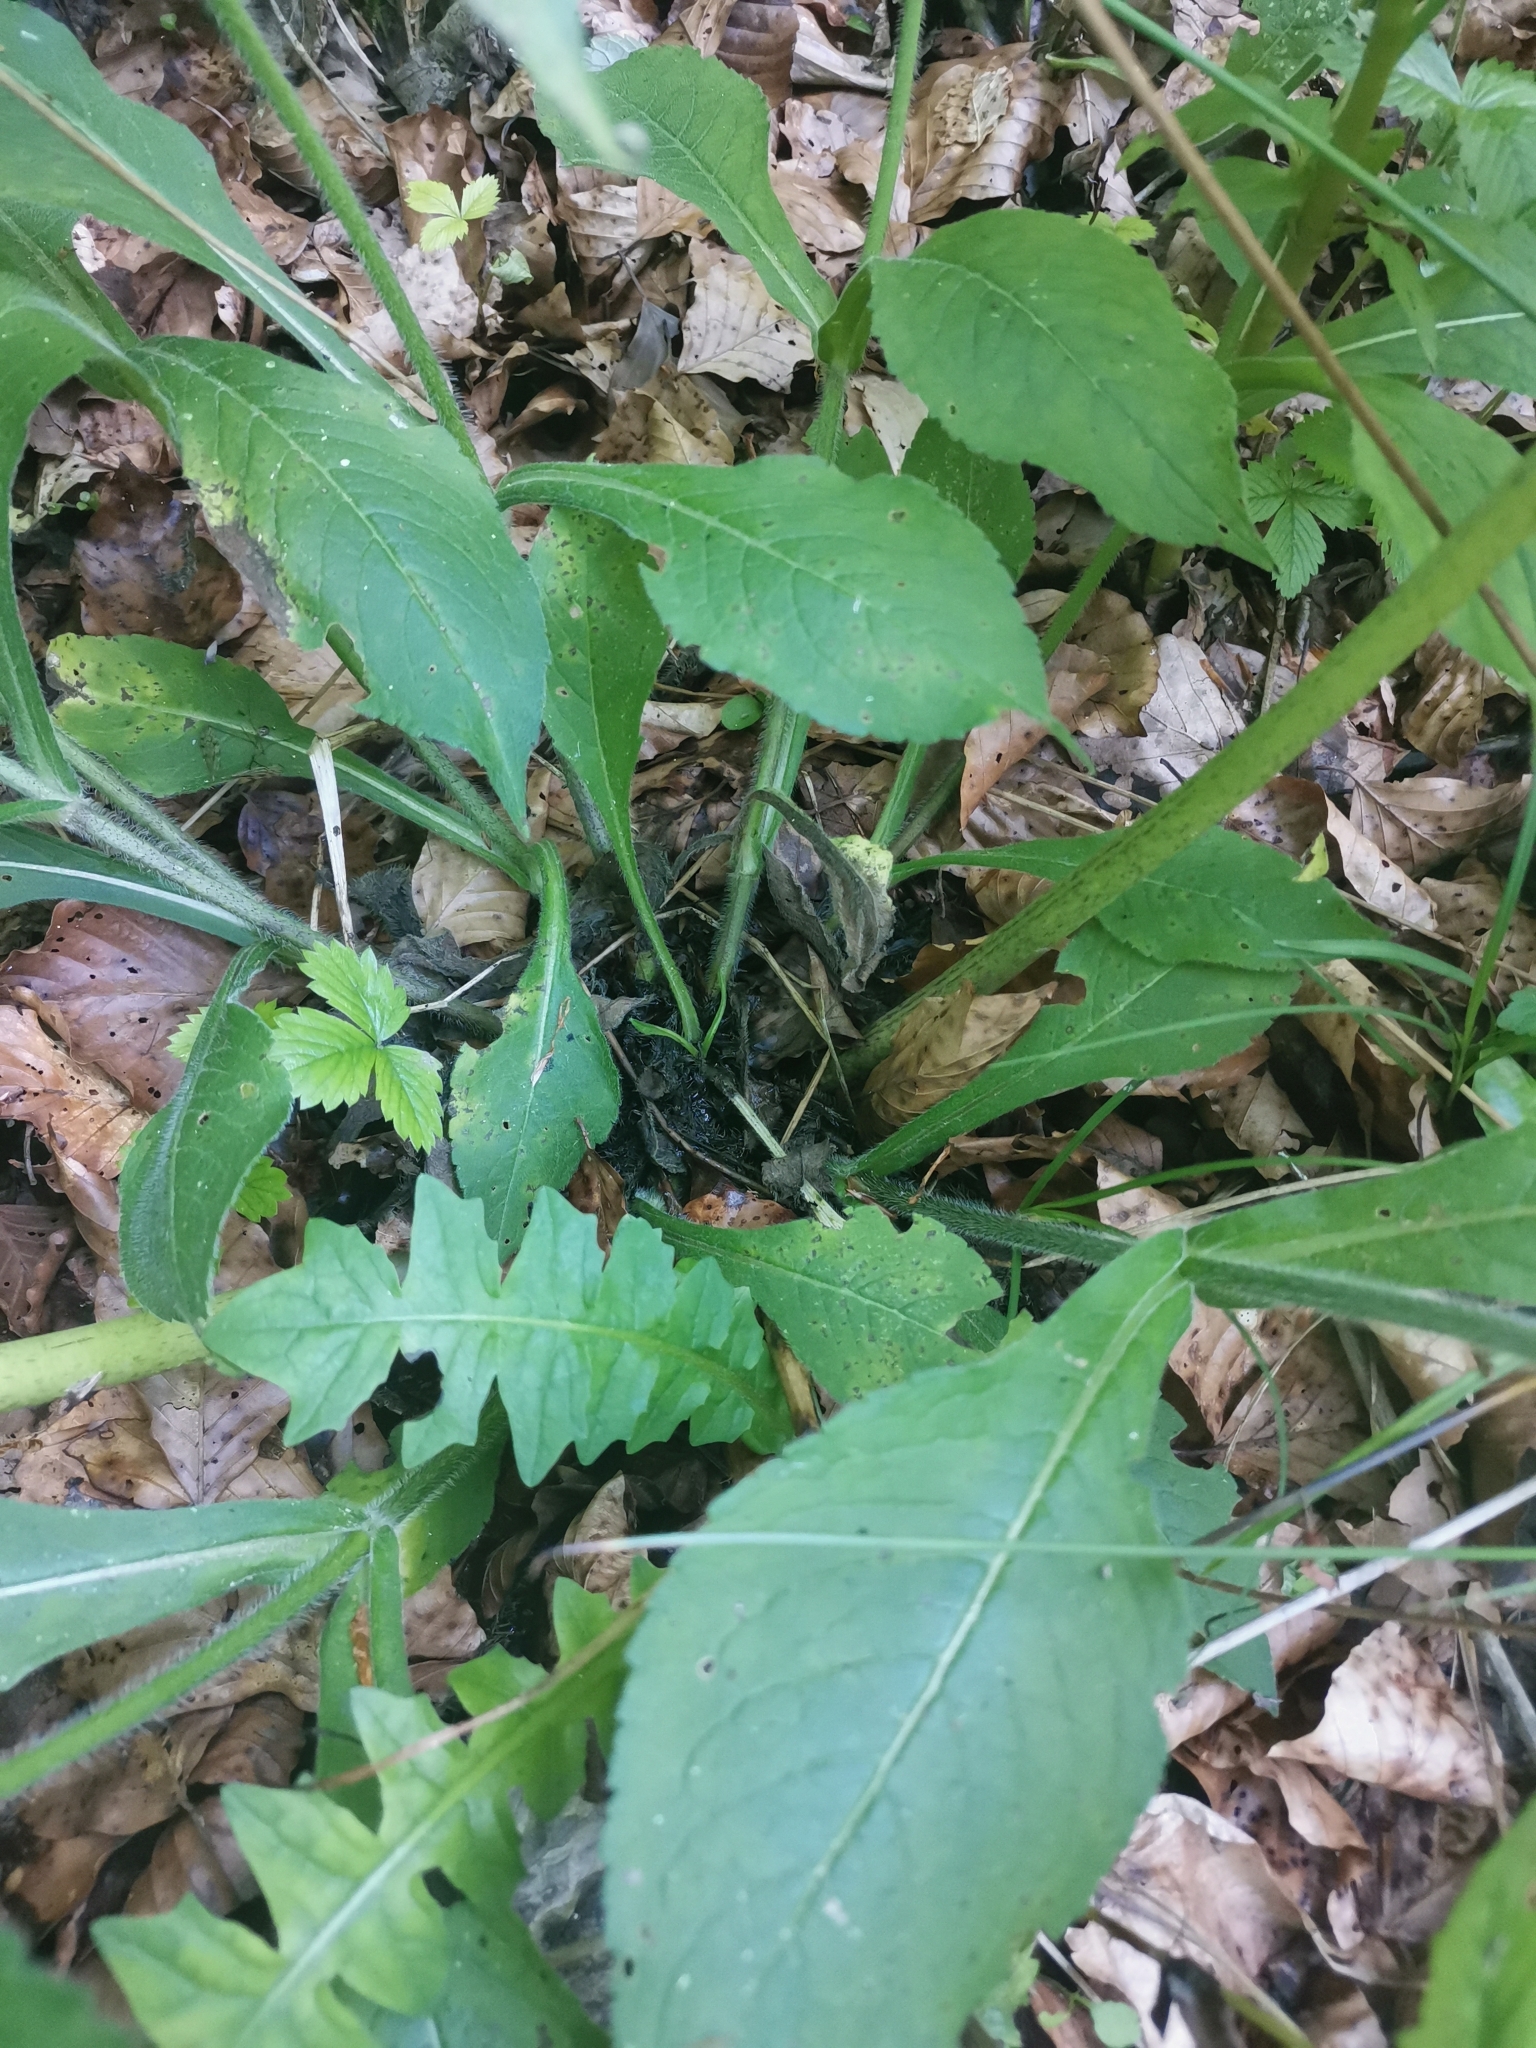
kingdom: Plantae
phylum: Tracheophyta
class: Magnoliopsida
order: Dipsacales
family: Caprifoliaceae
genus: Knautia
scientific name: Knautia drymeia
